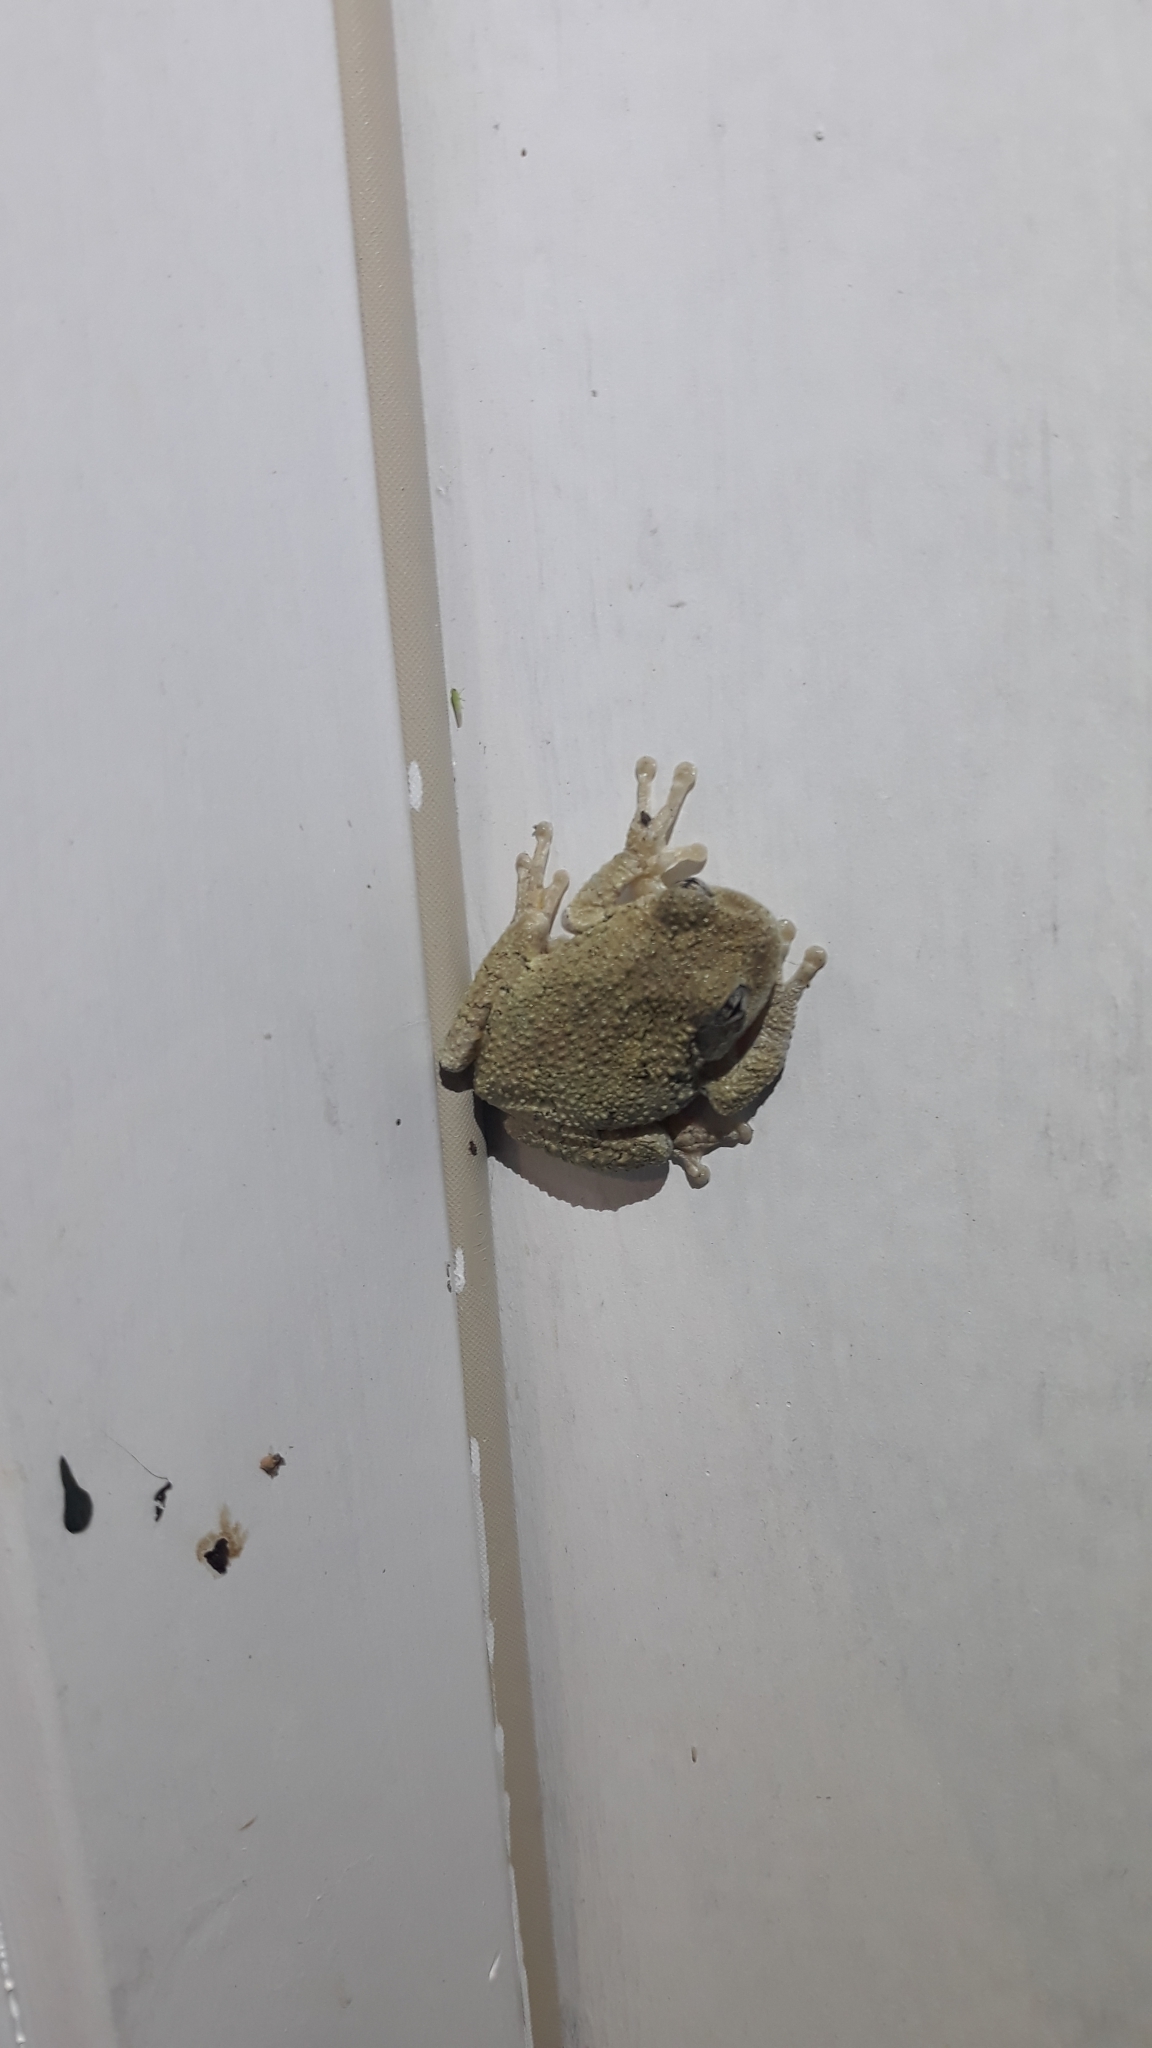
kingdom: Animalia
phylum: Chordata
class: Amphibia
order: Anura
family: Hylidae
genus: Hyla
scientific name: Hyla
